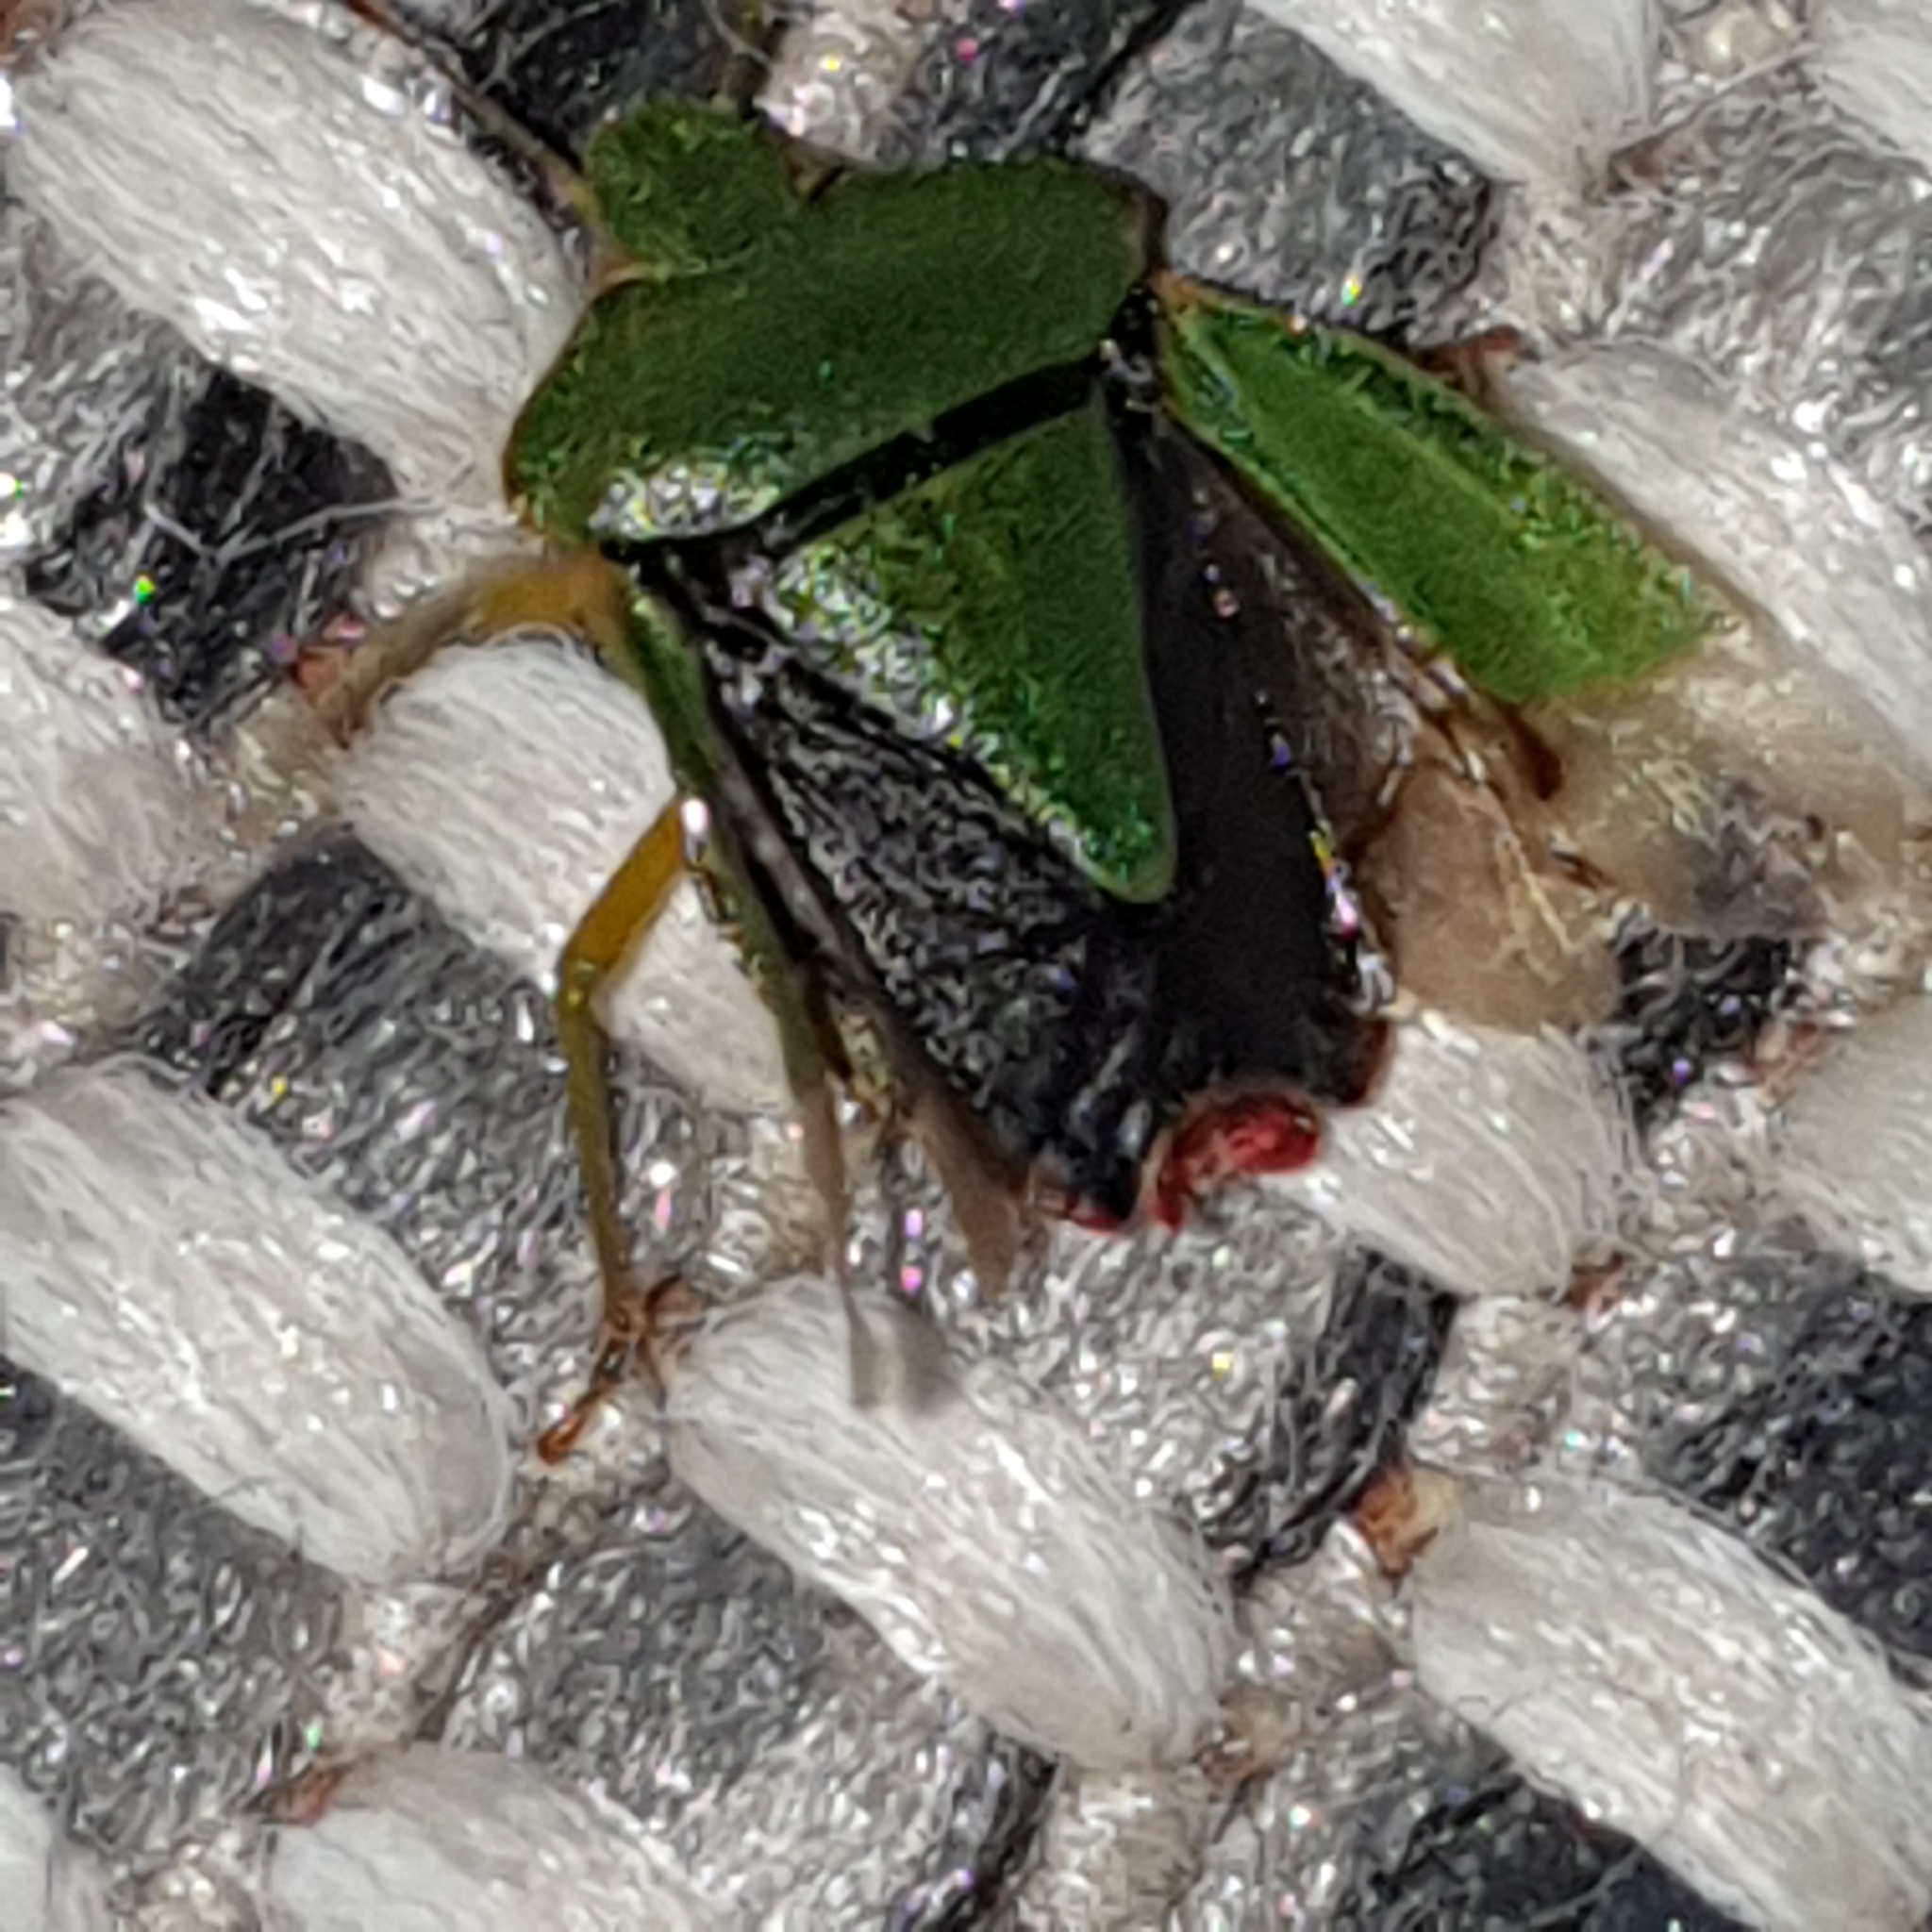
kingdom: Animalia
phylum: Arthropoda
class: Insecta
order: Hemiptera
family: Pentatomidae
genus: Palomena
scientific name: Palomena prasina
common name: Green shieldbug
